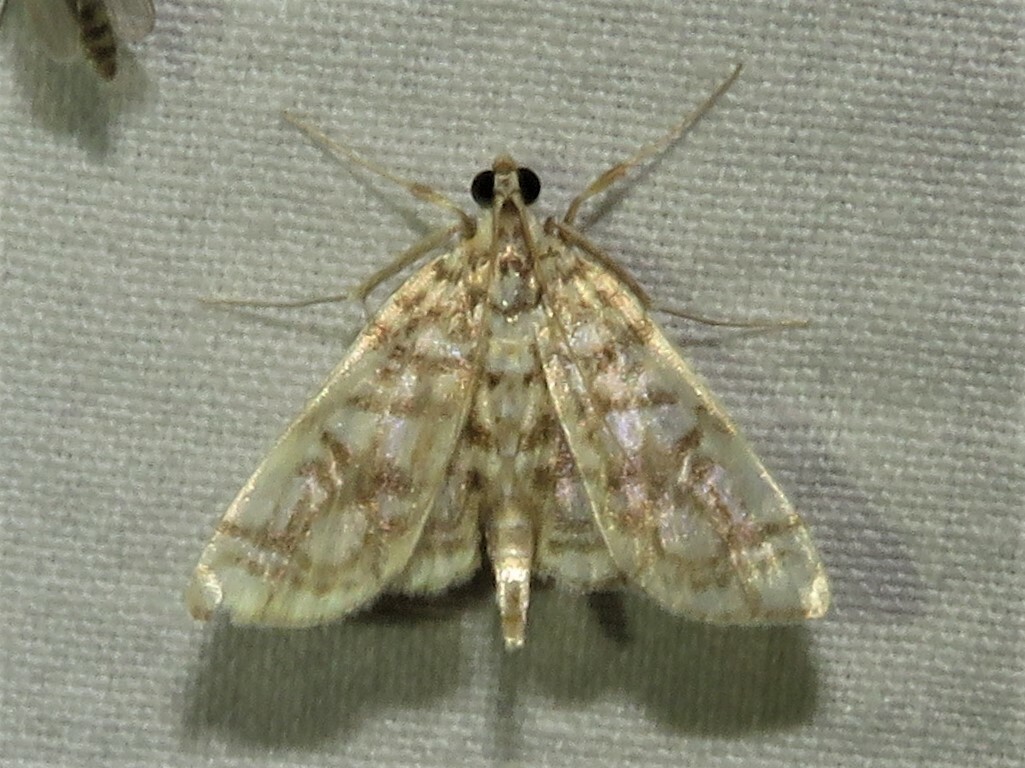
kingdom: Animalia
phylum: Arthropoda
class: Insecta
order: Lepidoptera
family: Crambidae
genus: Lygropia
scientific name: Lygropia rivulalis
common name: Bog lygropia moth
